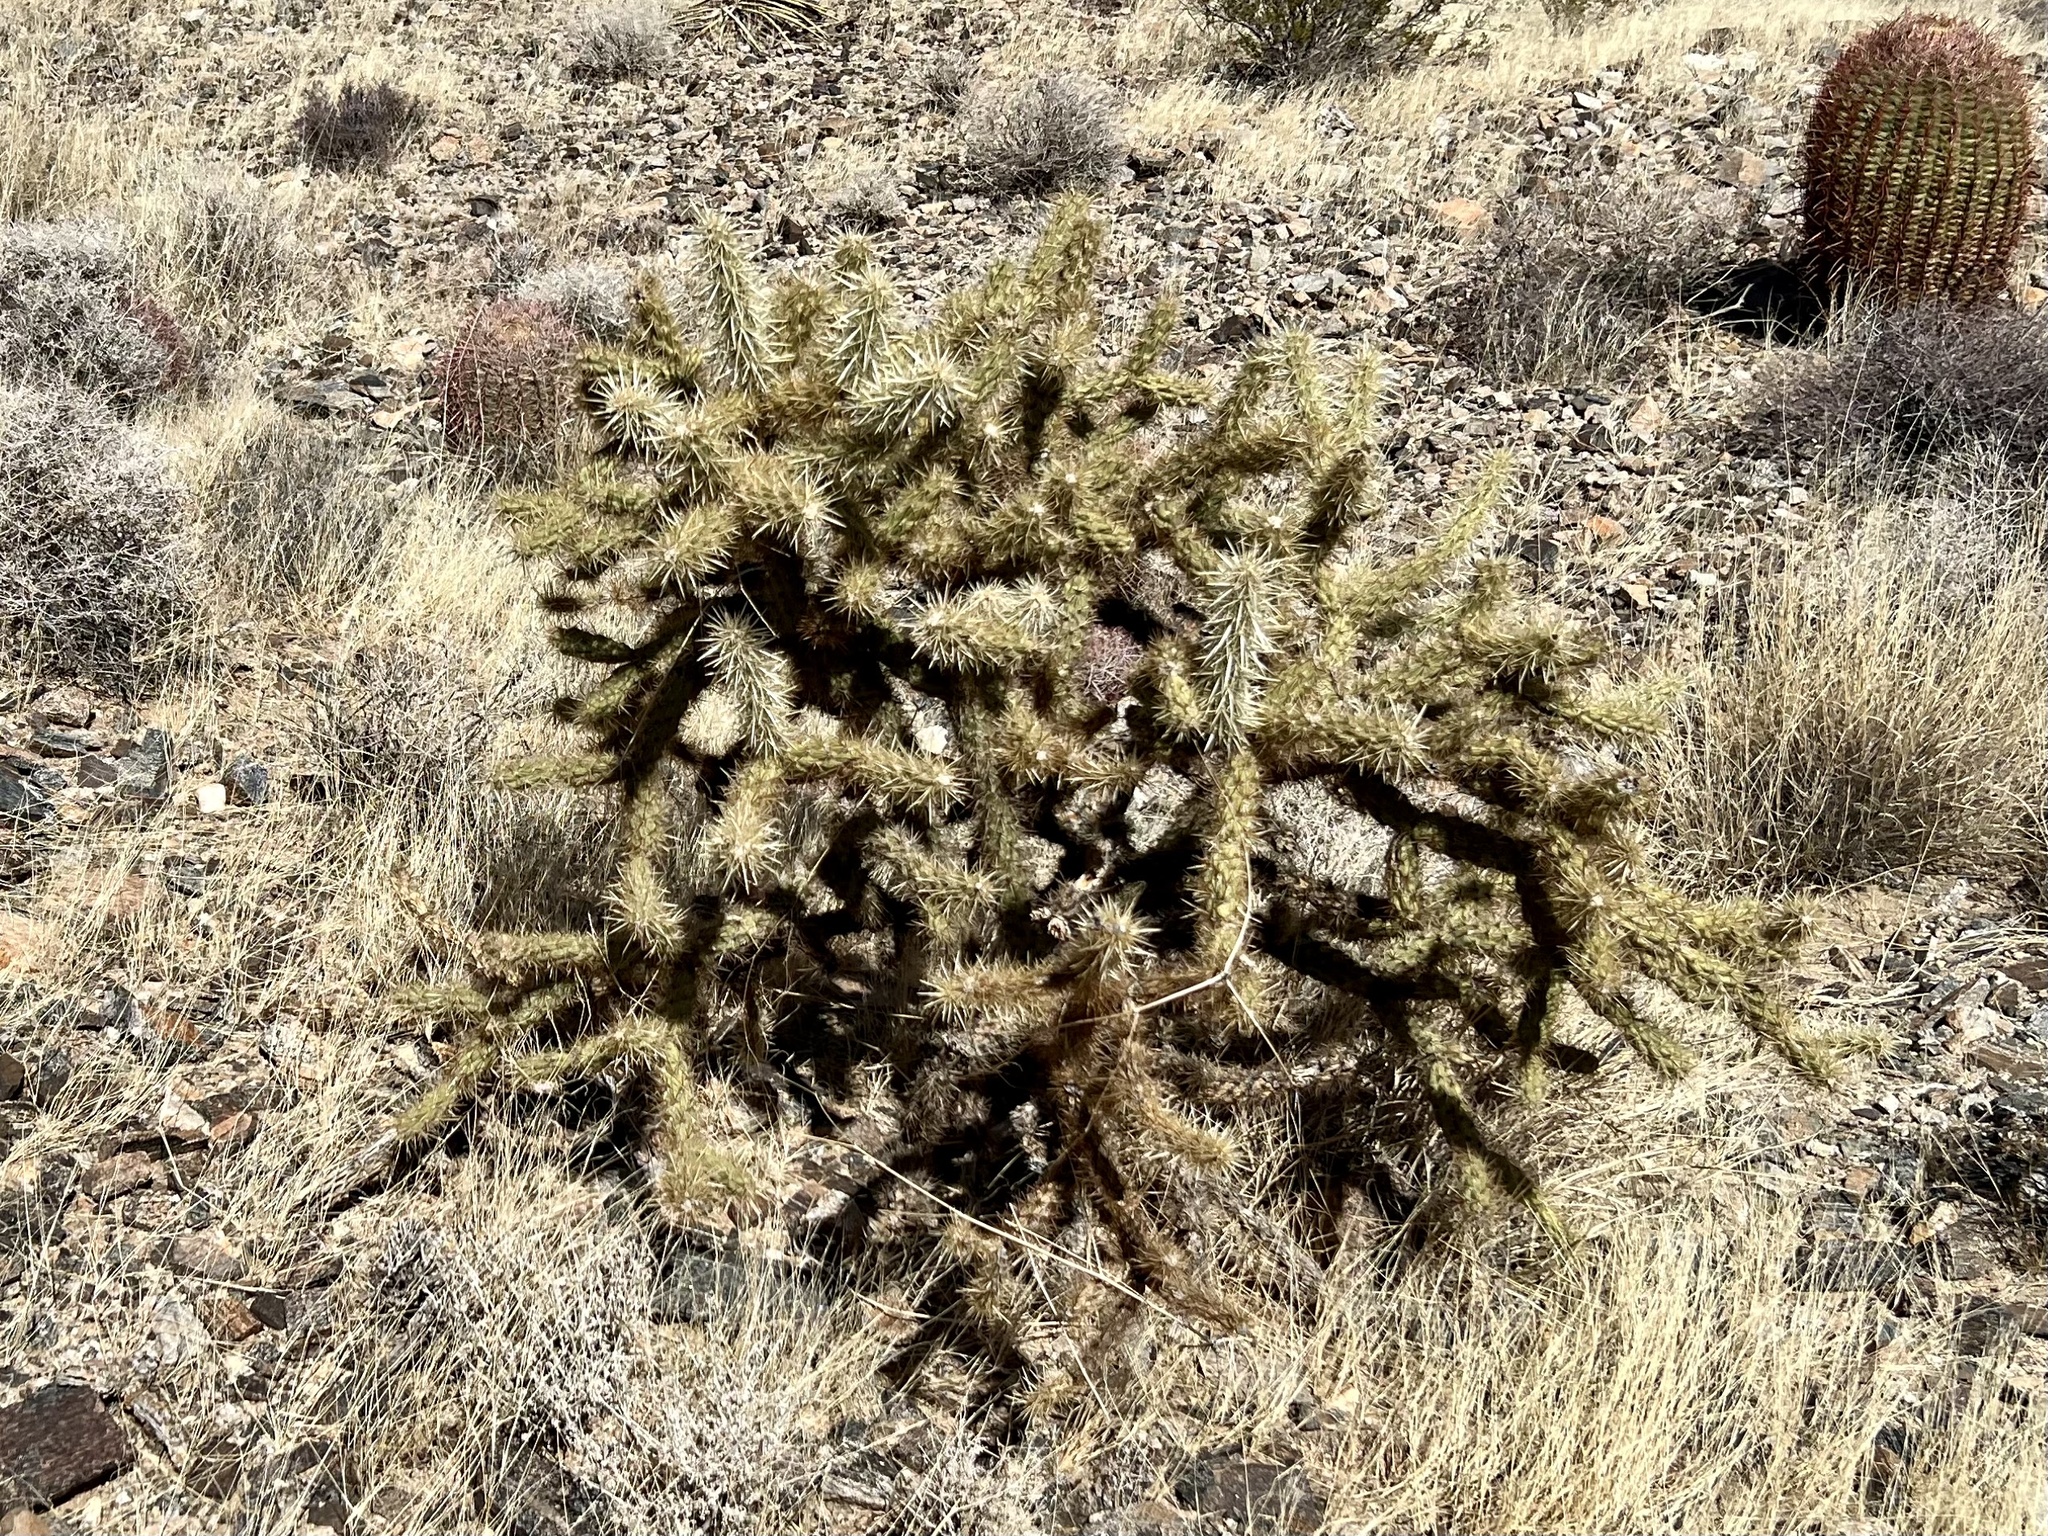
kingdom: Plantae
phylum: Tracheophyta
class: Magnoliopsida
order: Caryophyllales
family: Cactaceae
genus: Cylindropuntia
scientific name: Cylindropuntia acanthocarpa
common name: Buckhorn cholla
